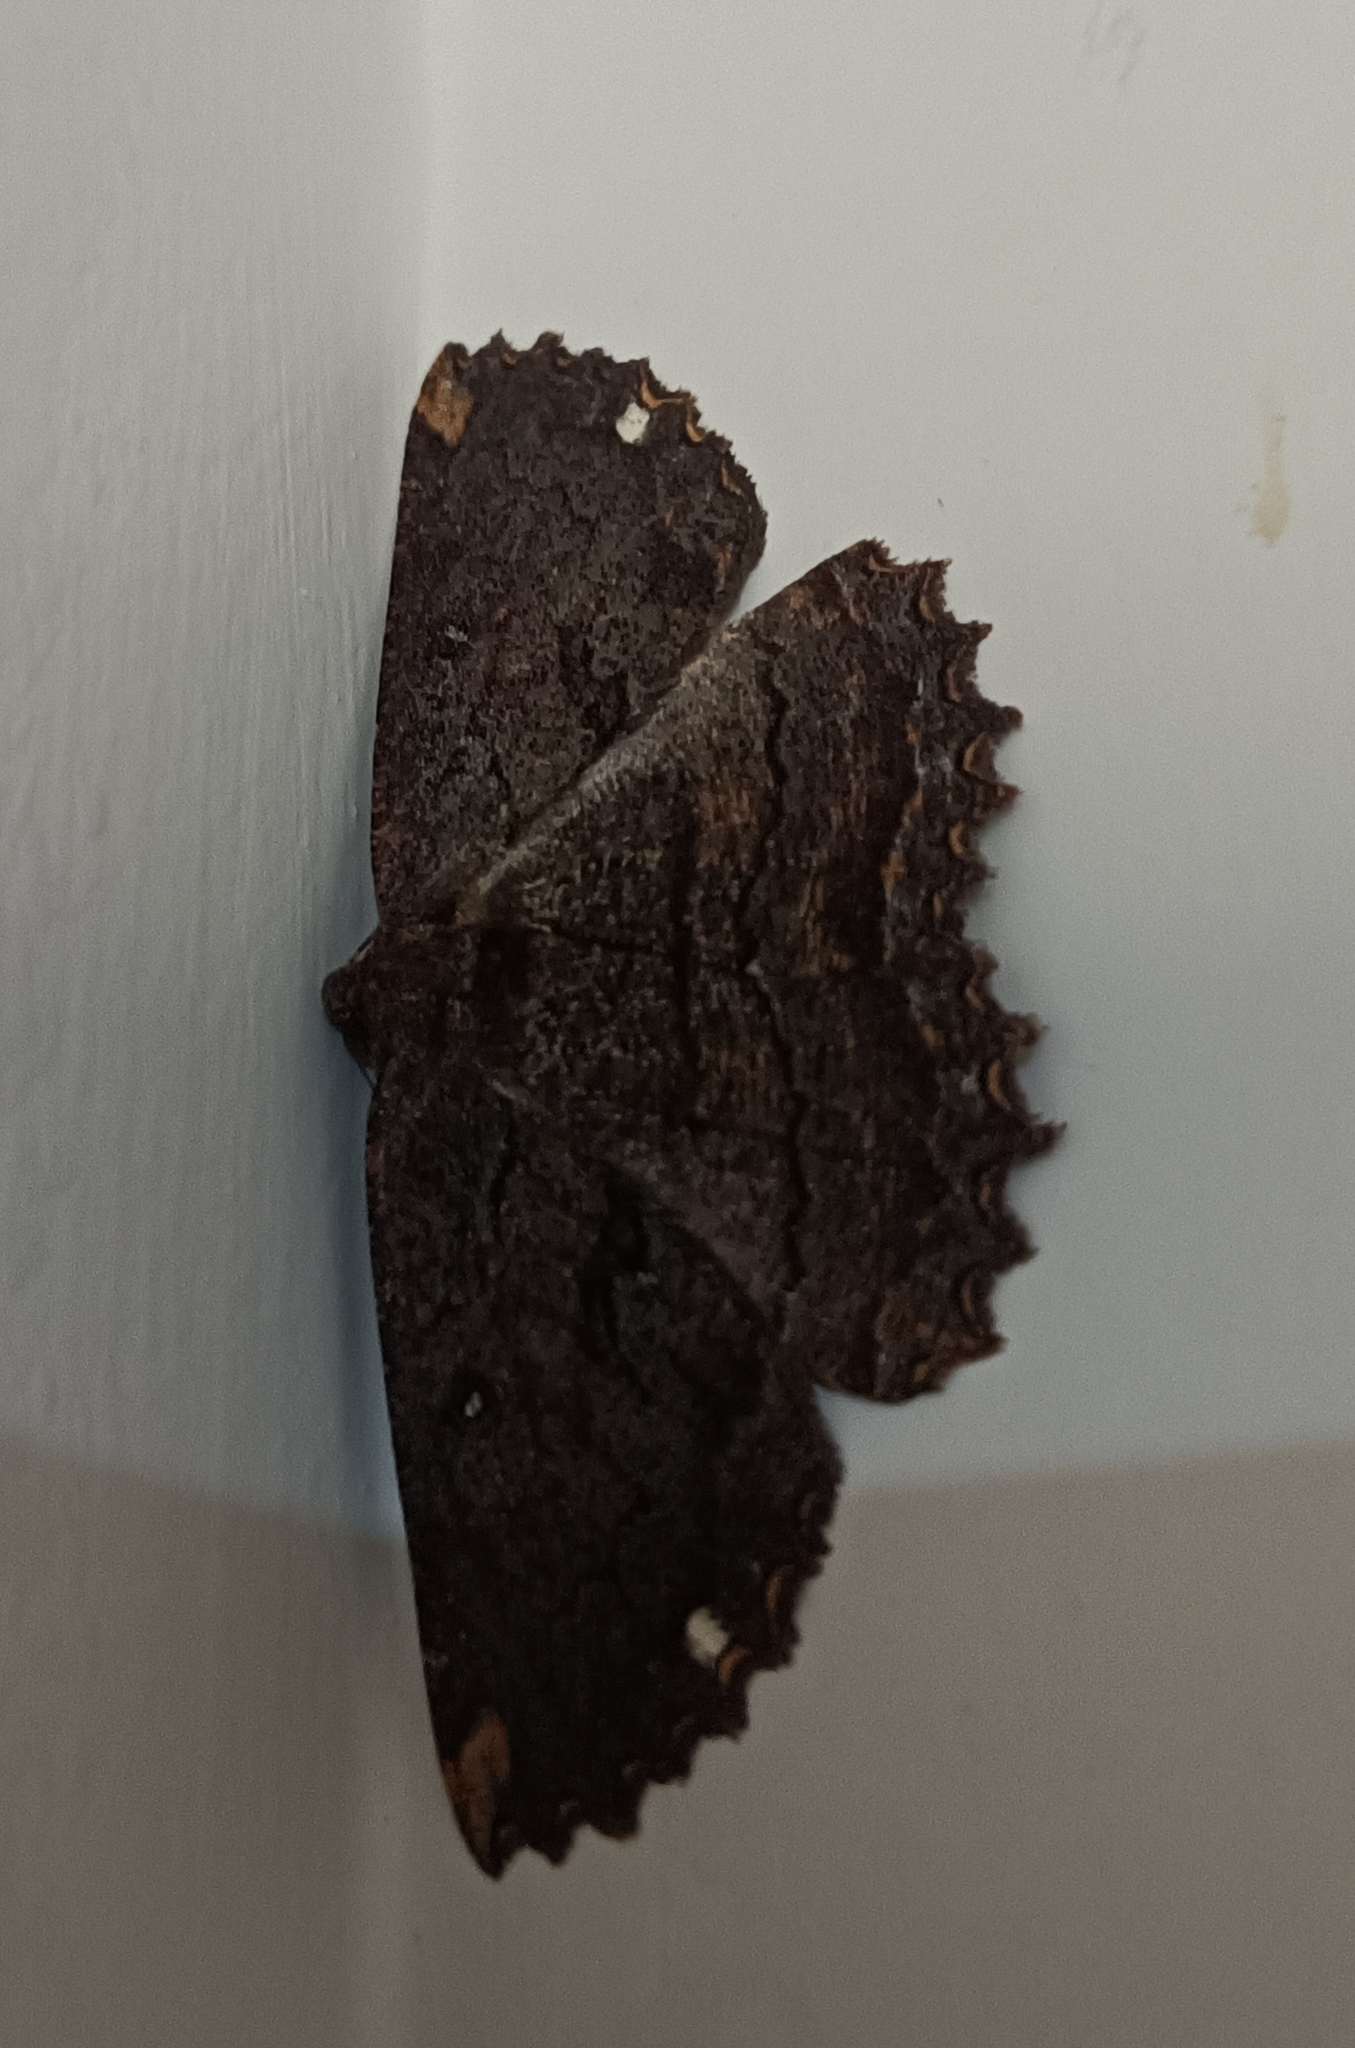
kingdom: Animalia
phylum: Arthropoda
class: Insecta
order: Lepidoptera
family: Geometridae
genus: Gellonia
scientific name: Gellonia pannularia
